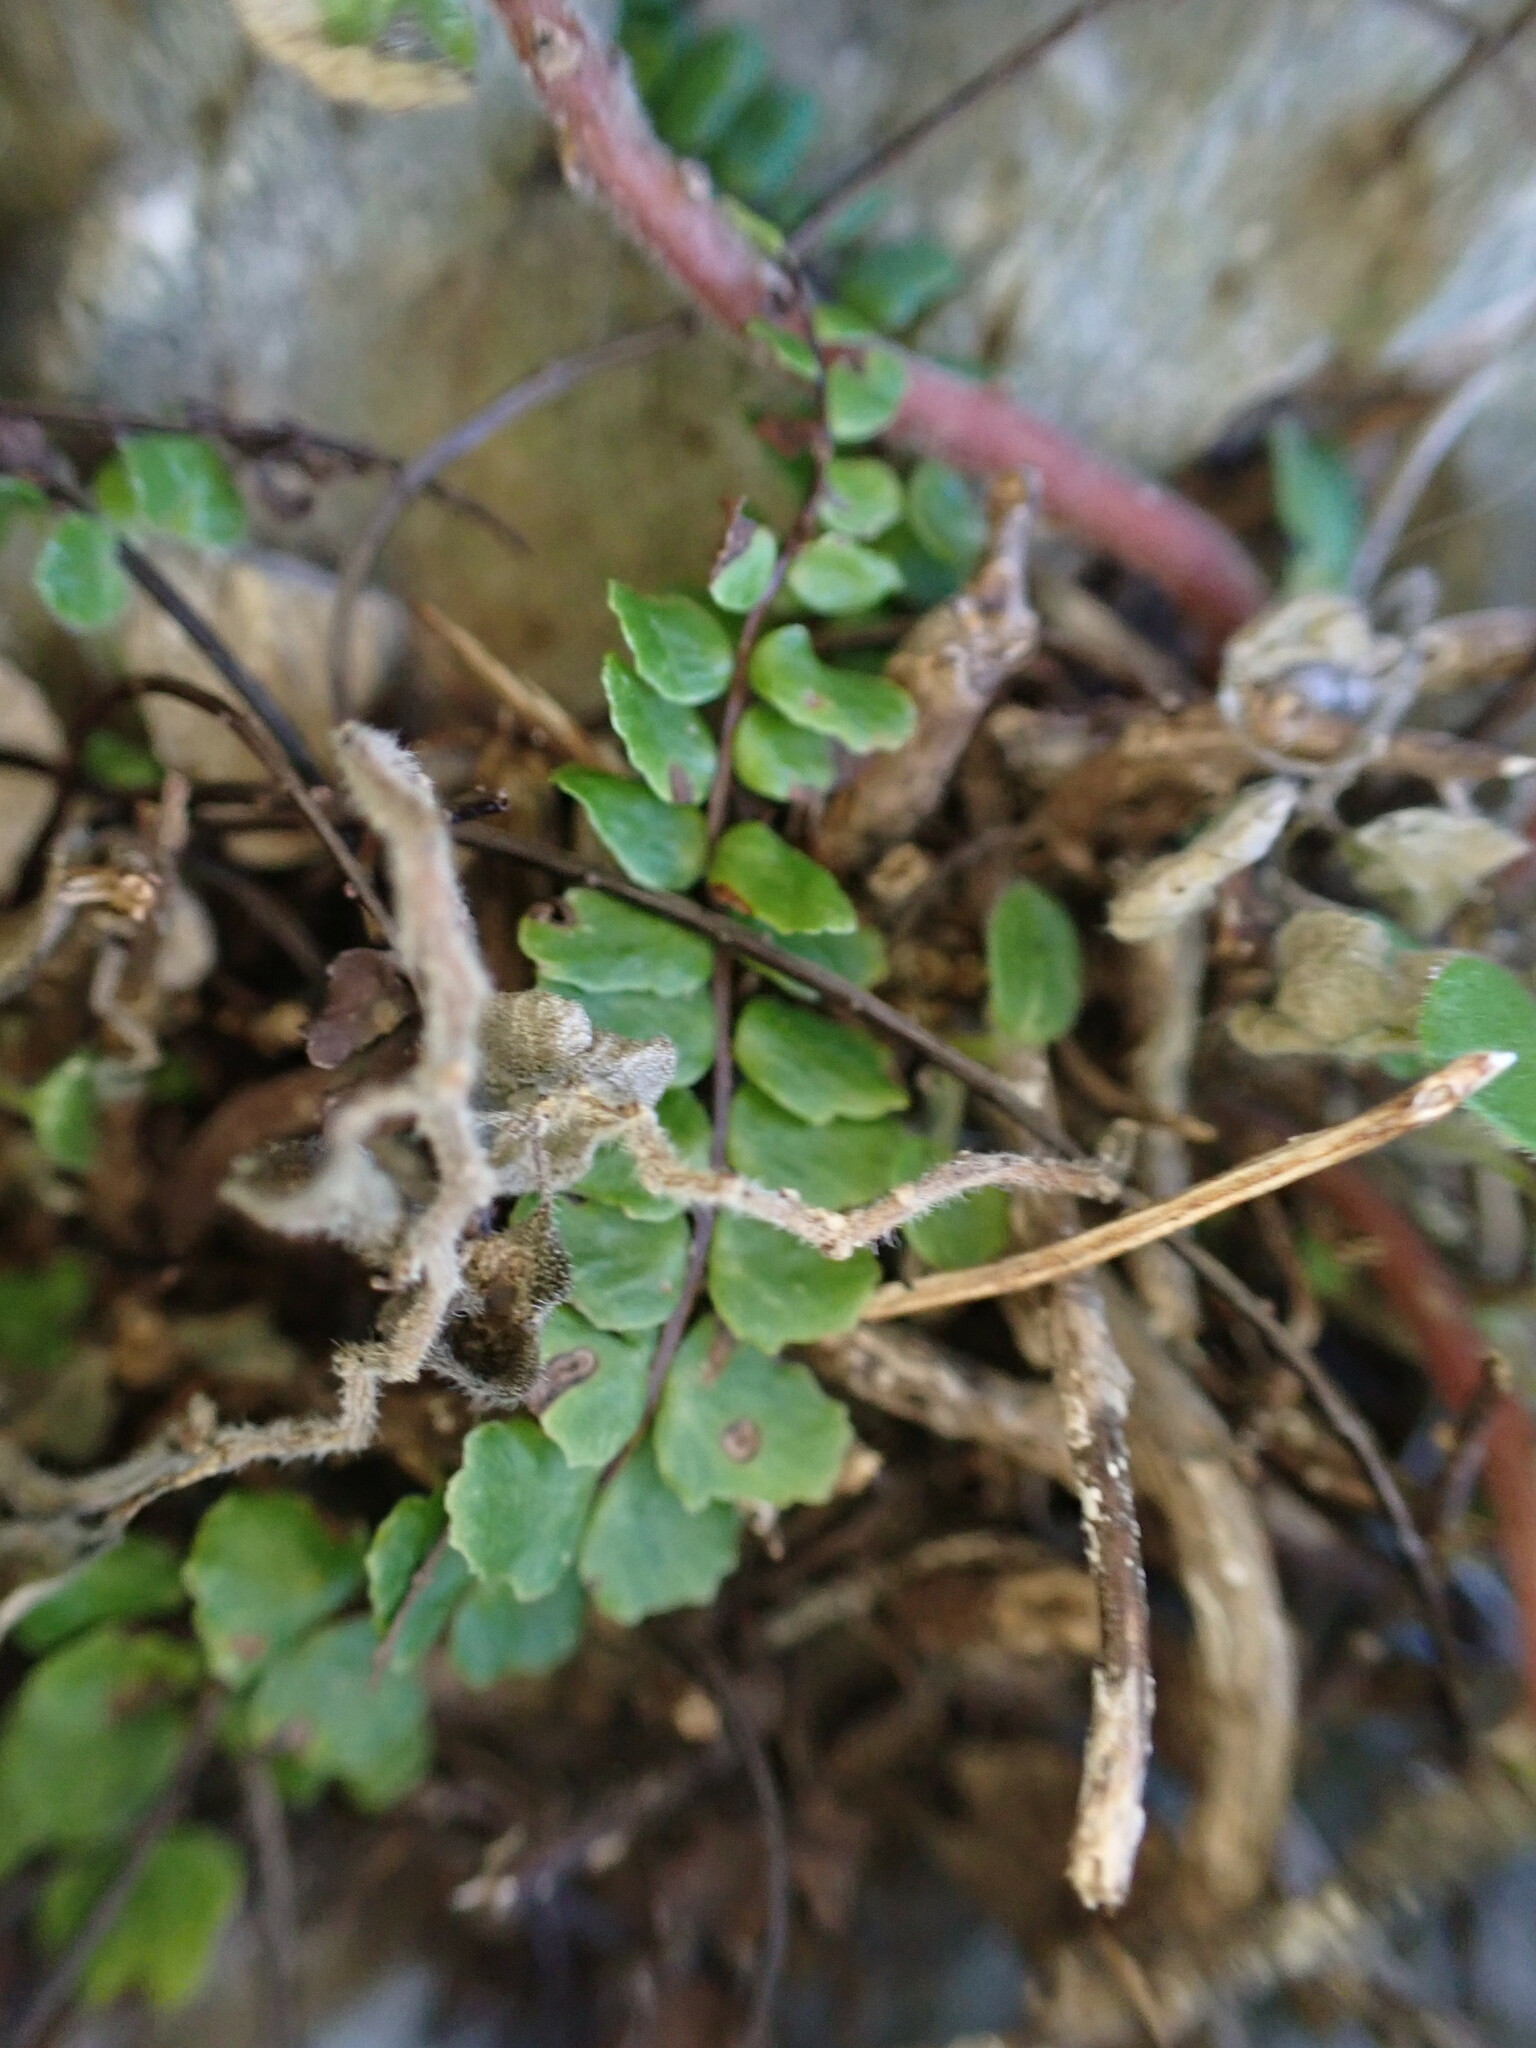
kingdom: Plantae
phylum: Tracheophyta
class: Polypodiopsida
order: Polypodiales
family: Aspleniaceae
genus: Asplenium
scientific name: Asplenium trichomanes
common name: Maidenhair spleenwort
